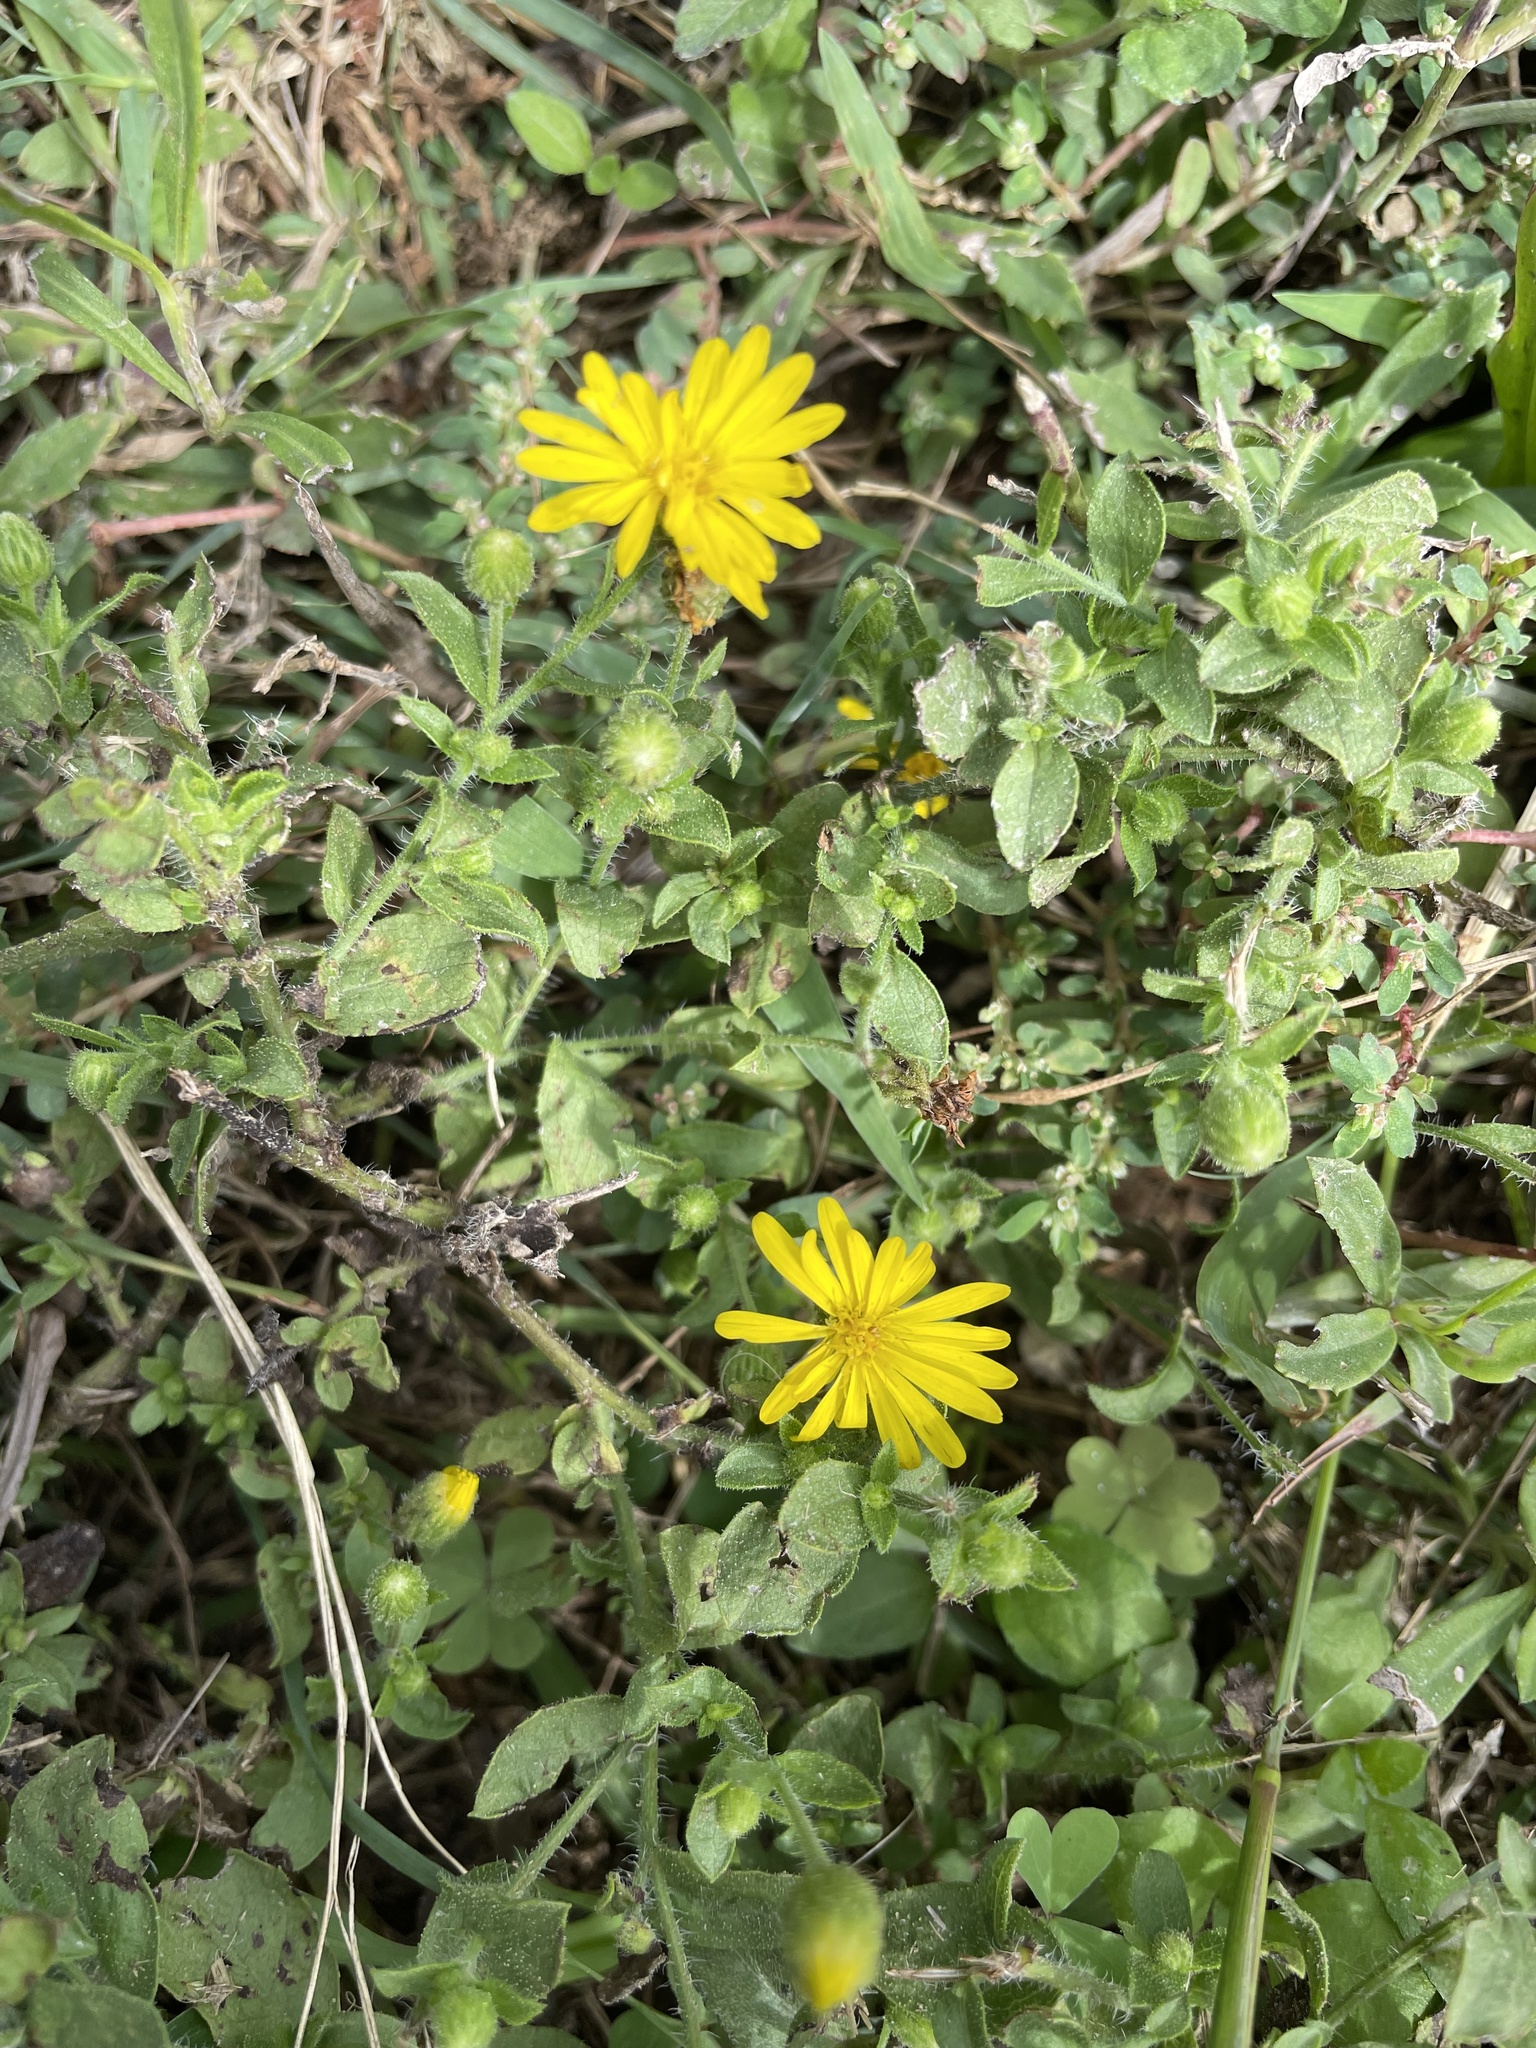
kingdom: Plantae
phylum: Tracheophyta
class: Magnoliopsida
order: Asterales
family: Asteraceae
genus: Heterotheca
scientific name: Heterotheca subaxillaris
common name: Camphorweed
